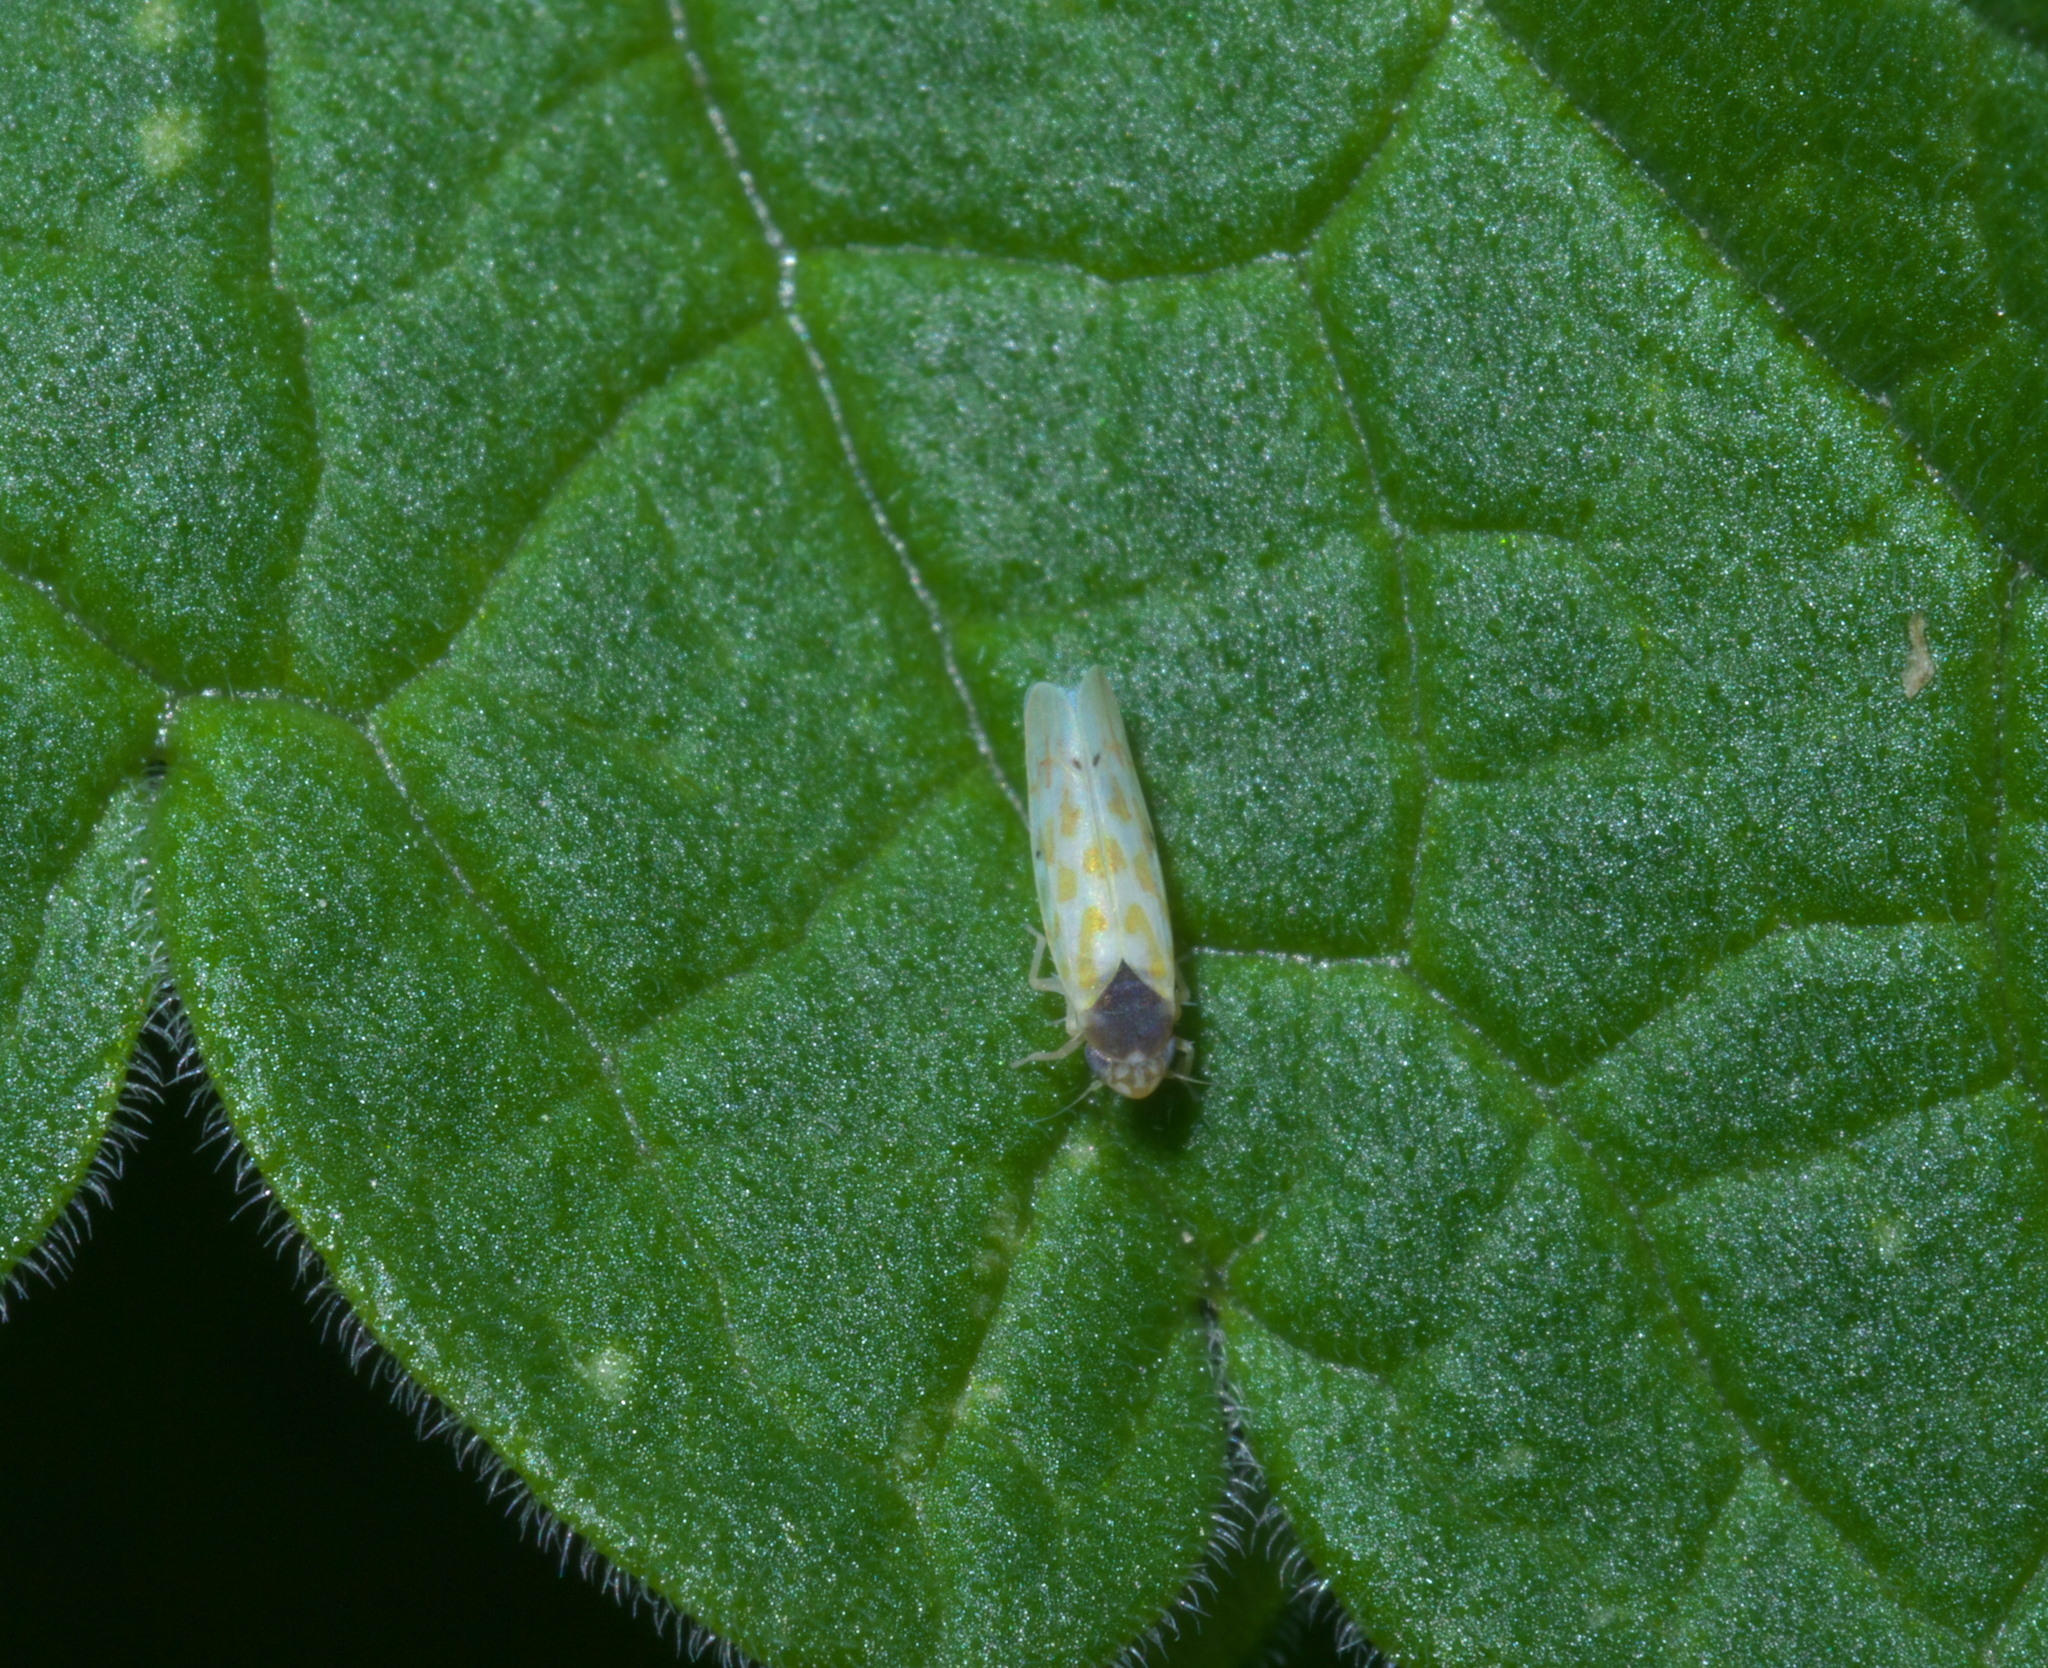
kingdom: Animalia
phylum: Arthropoda
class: Insecta
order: Hemiptera
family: Cicadellidae
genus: Eratoneura
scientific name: Eratoneura ardens
